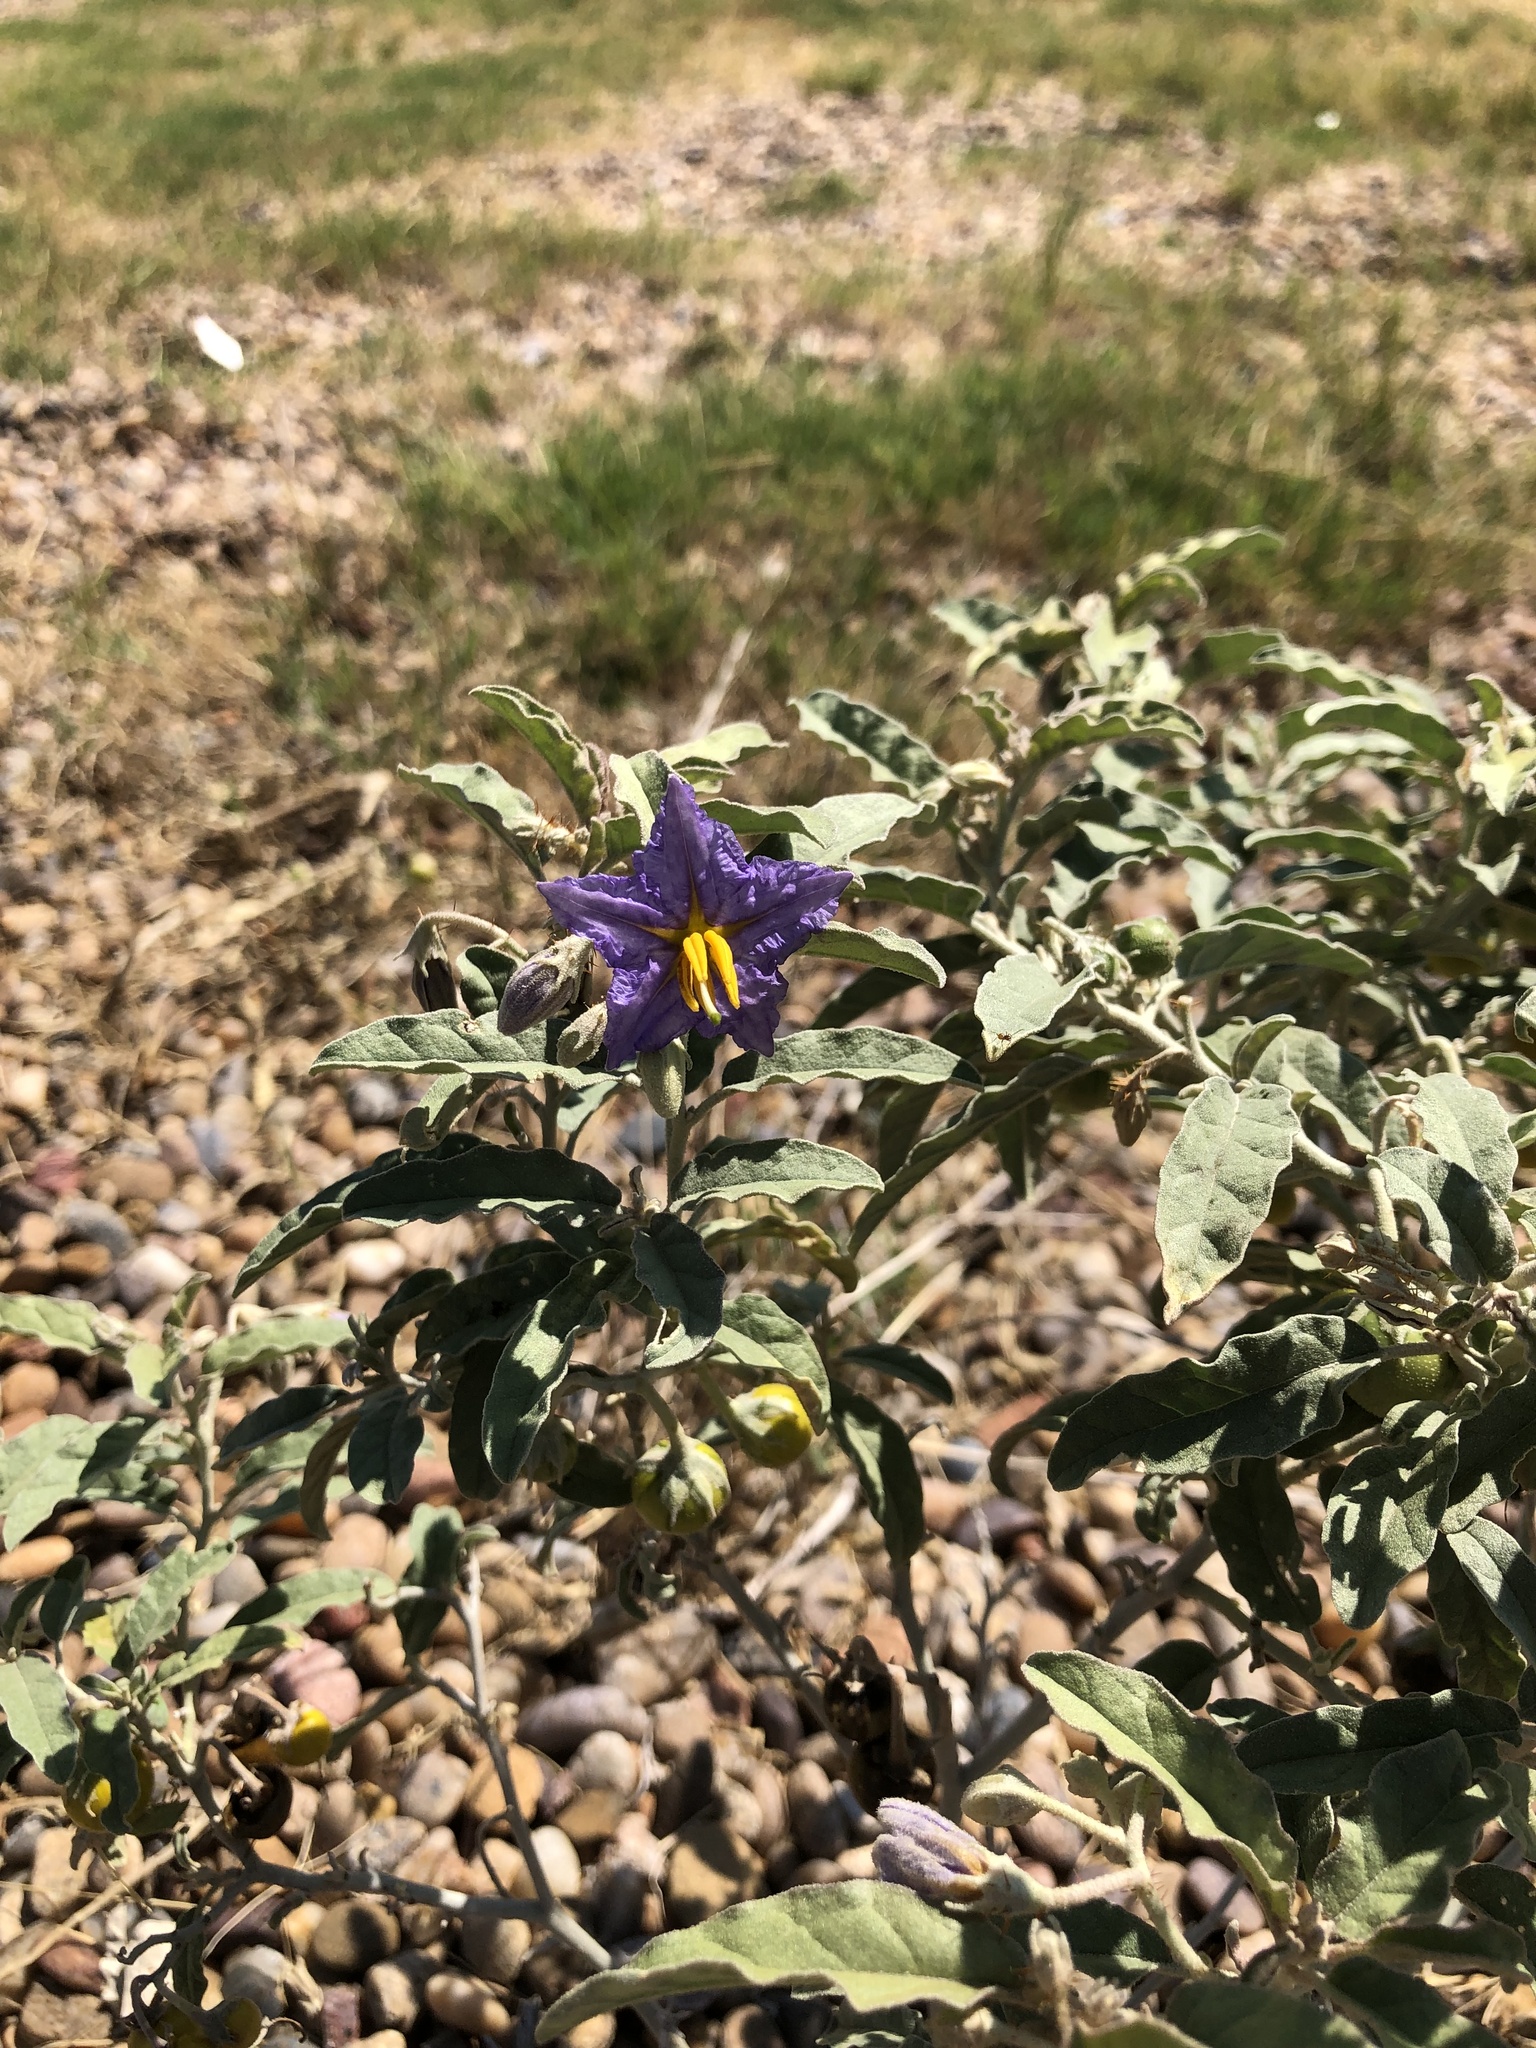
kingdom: Plantae
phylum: Tracheophyta
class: Magnoliopsida
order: Solanales
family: Solanaceae
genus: Solanum
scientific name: Solanum elaeagnifolium
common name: Silverleaf nightshade
